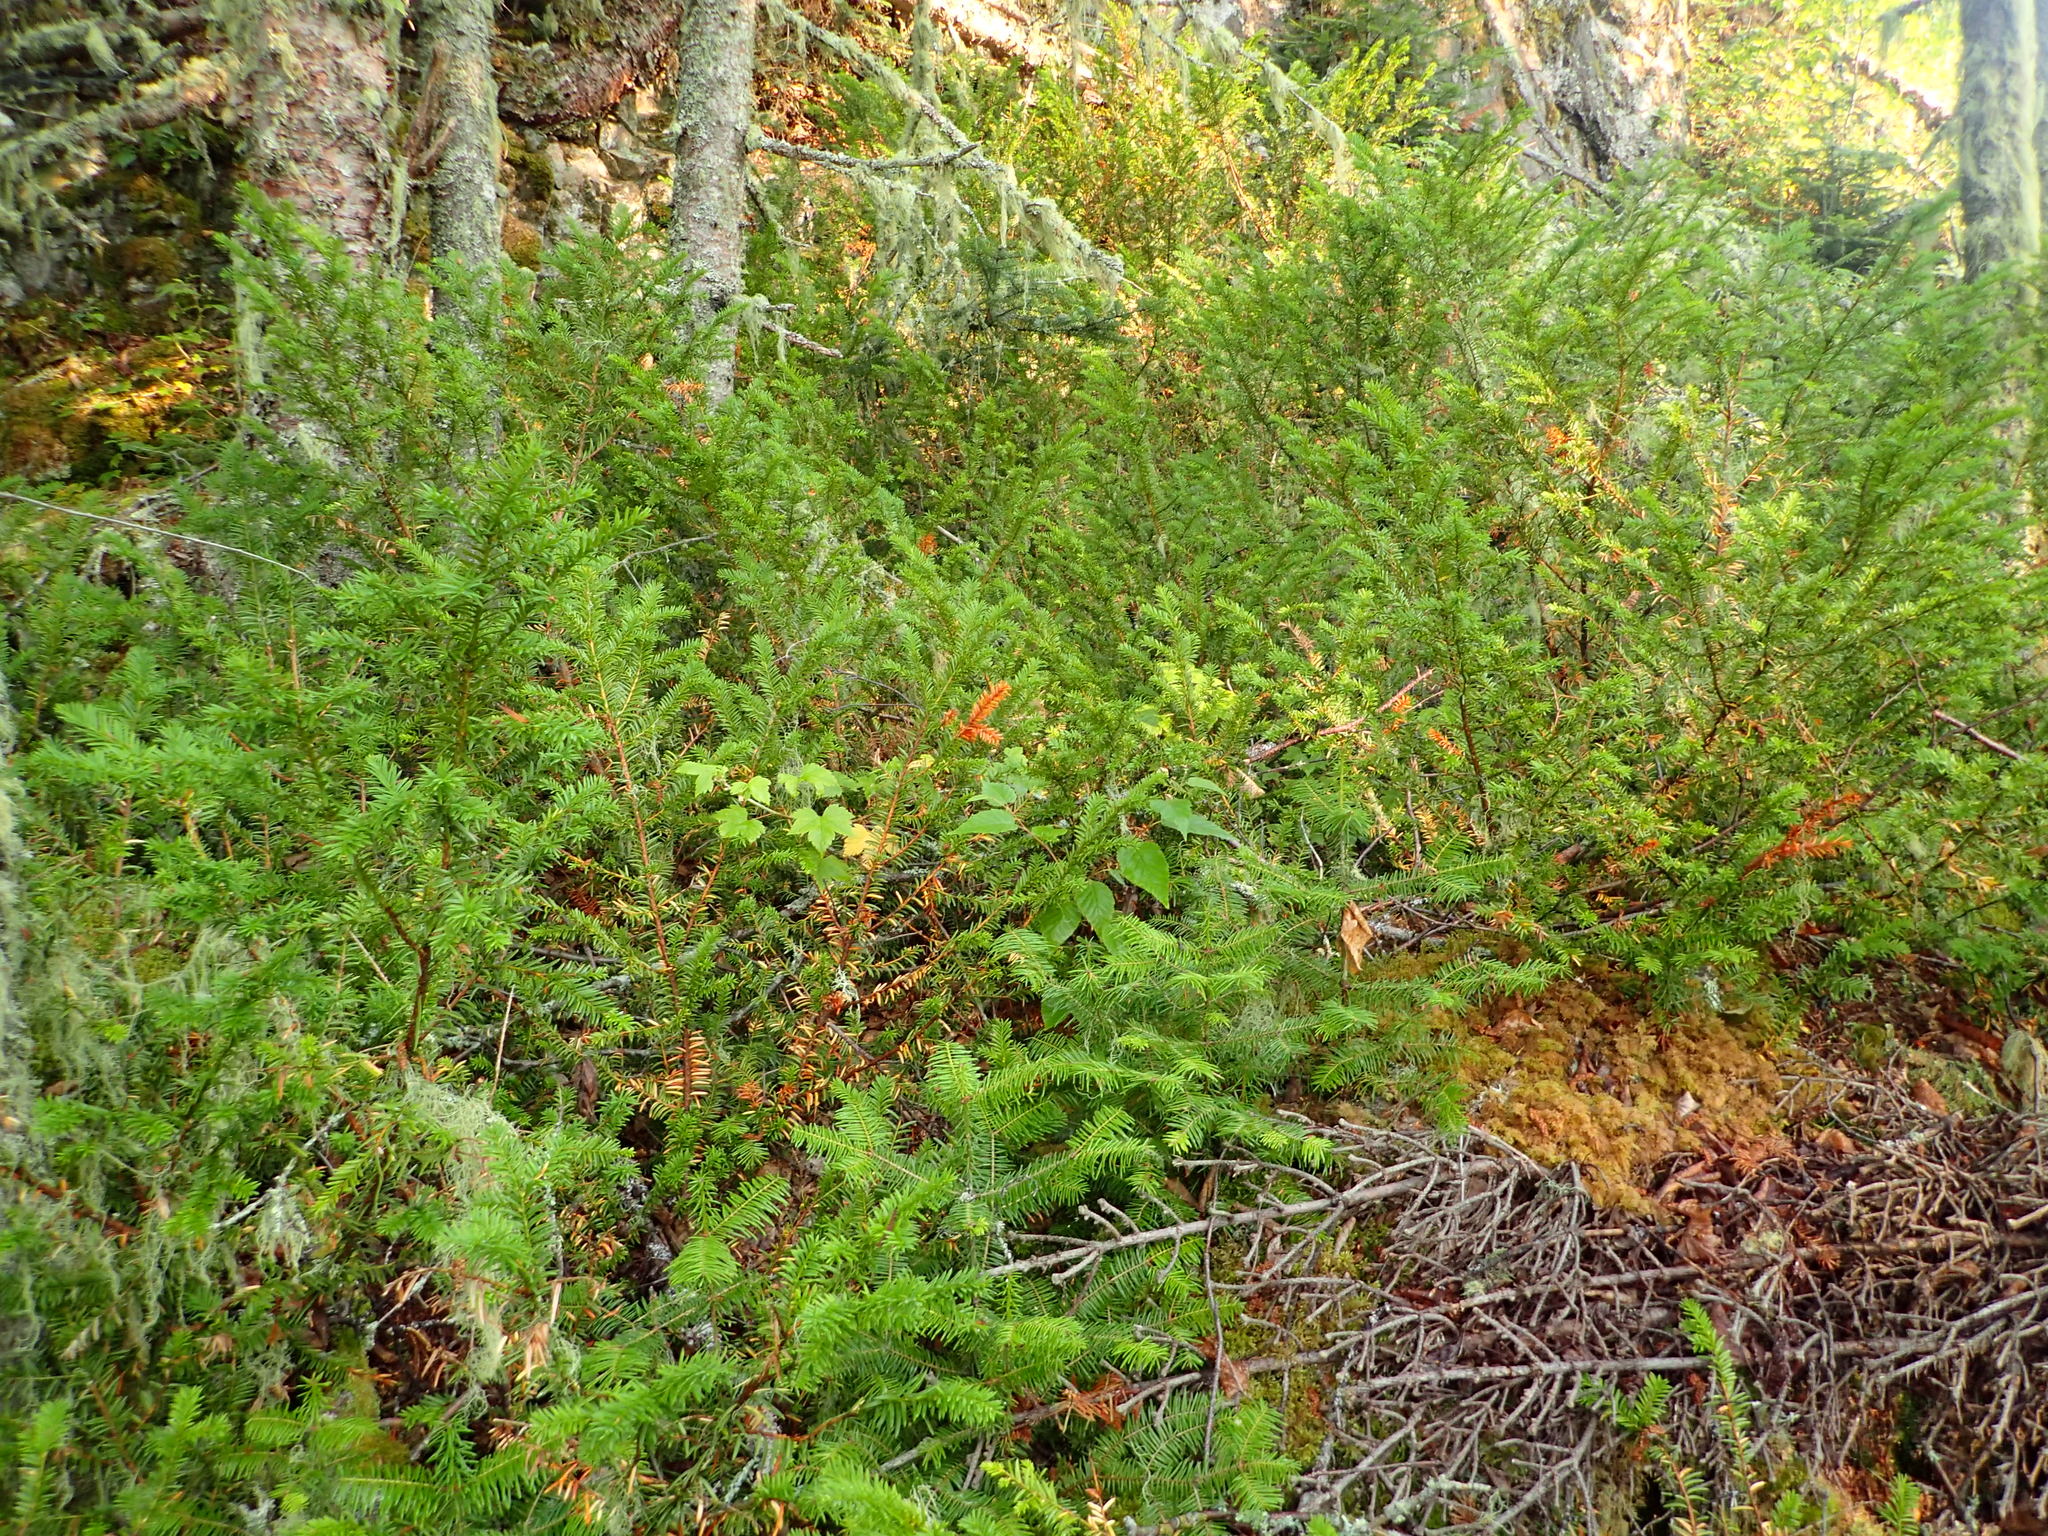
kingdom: Plantae
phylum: Tracheophyta
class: Pinopsida
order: Pinales
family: Taxaceae
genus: Taxus
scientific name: Taxus canadensis
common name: American yew
